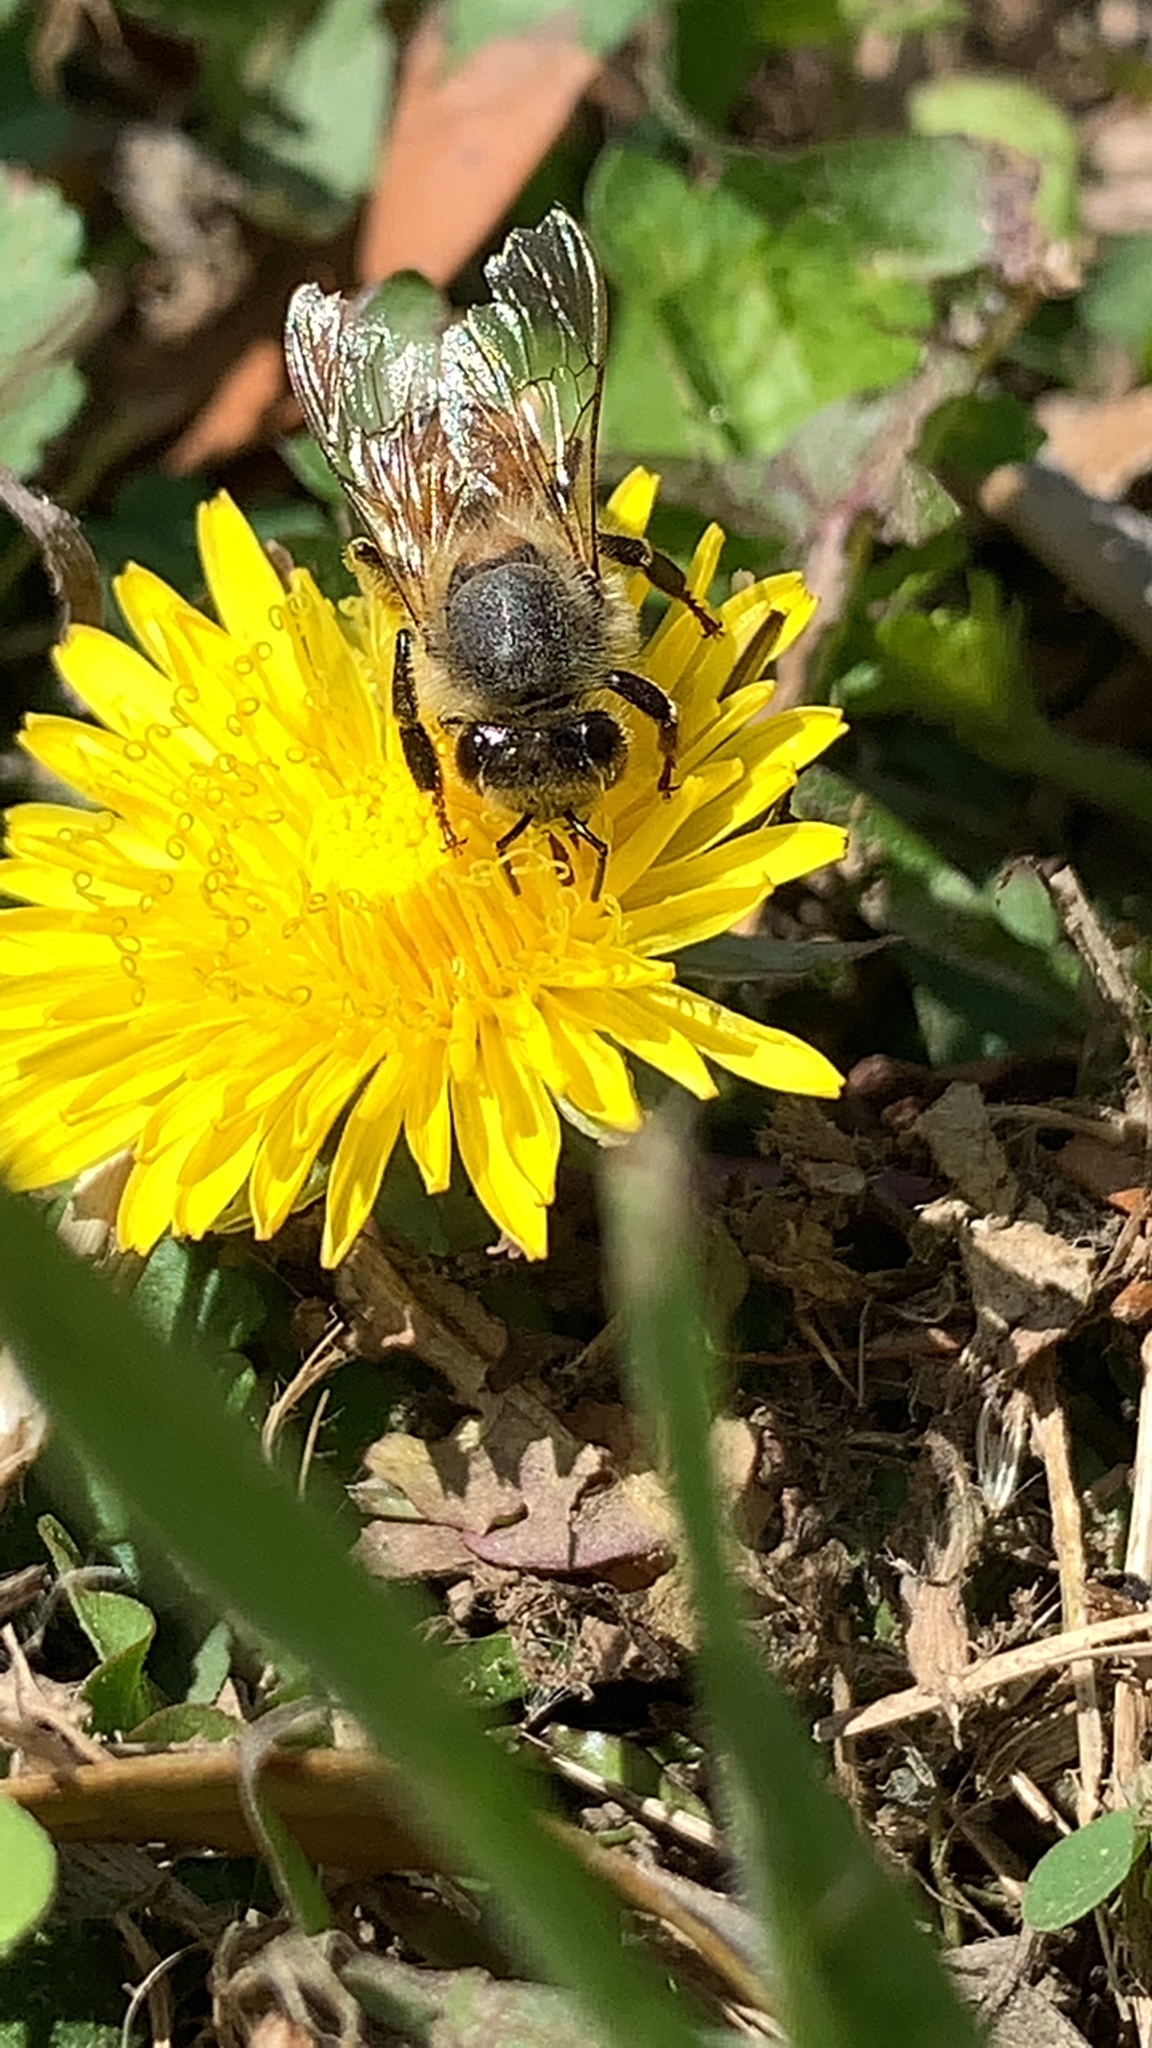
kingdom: Animalia
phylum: Arthropoda
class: Insecta
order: Hymenoptera
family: Apidae
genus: Apis
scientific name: Apis mellifera
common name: Honey bee
